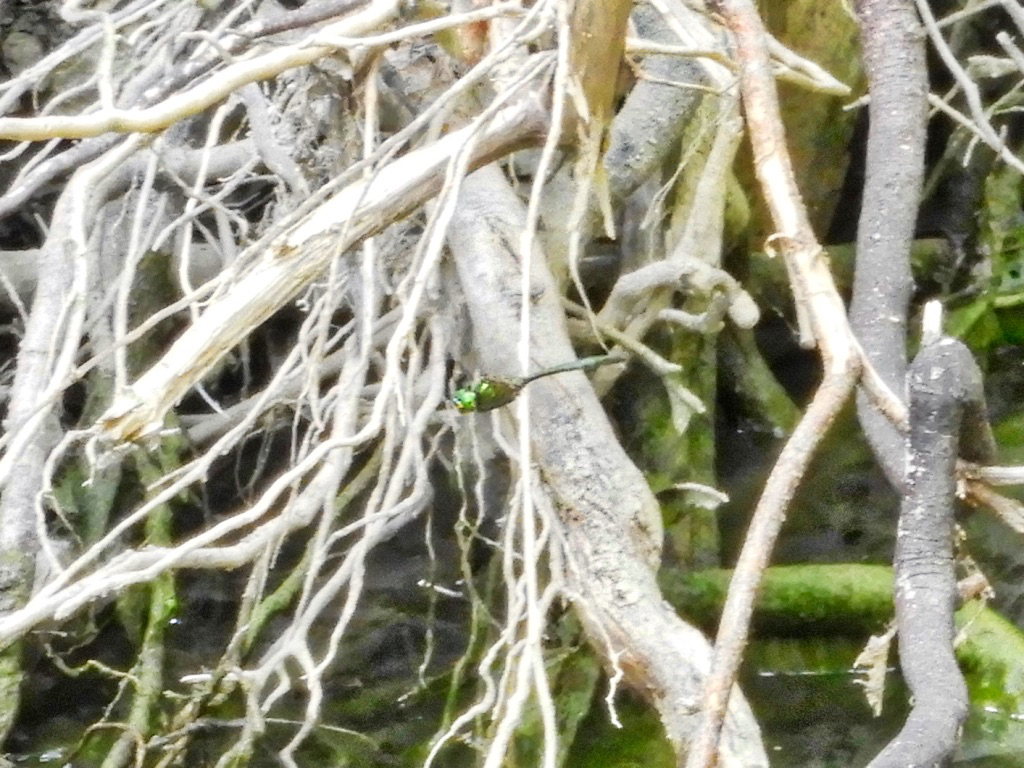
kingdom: Animalia
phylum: Arthropoda
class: Insecta
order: Odonata
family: Corduliidae
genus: Somatochlora
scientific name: Somatochlora
